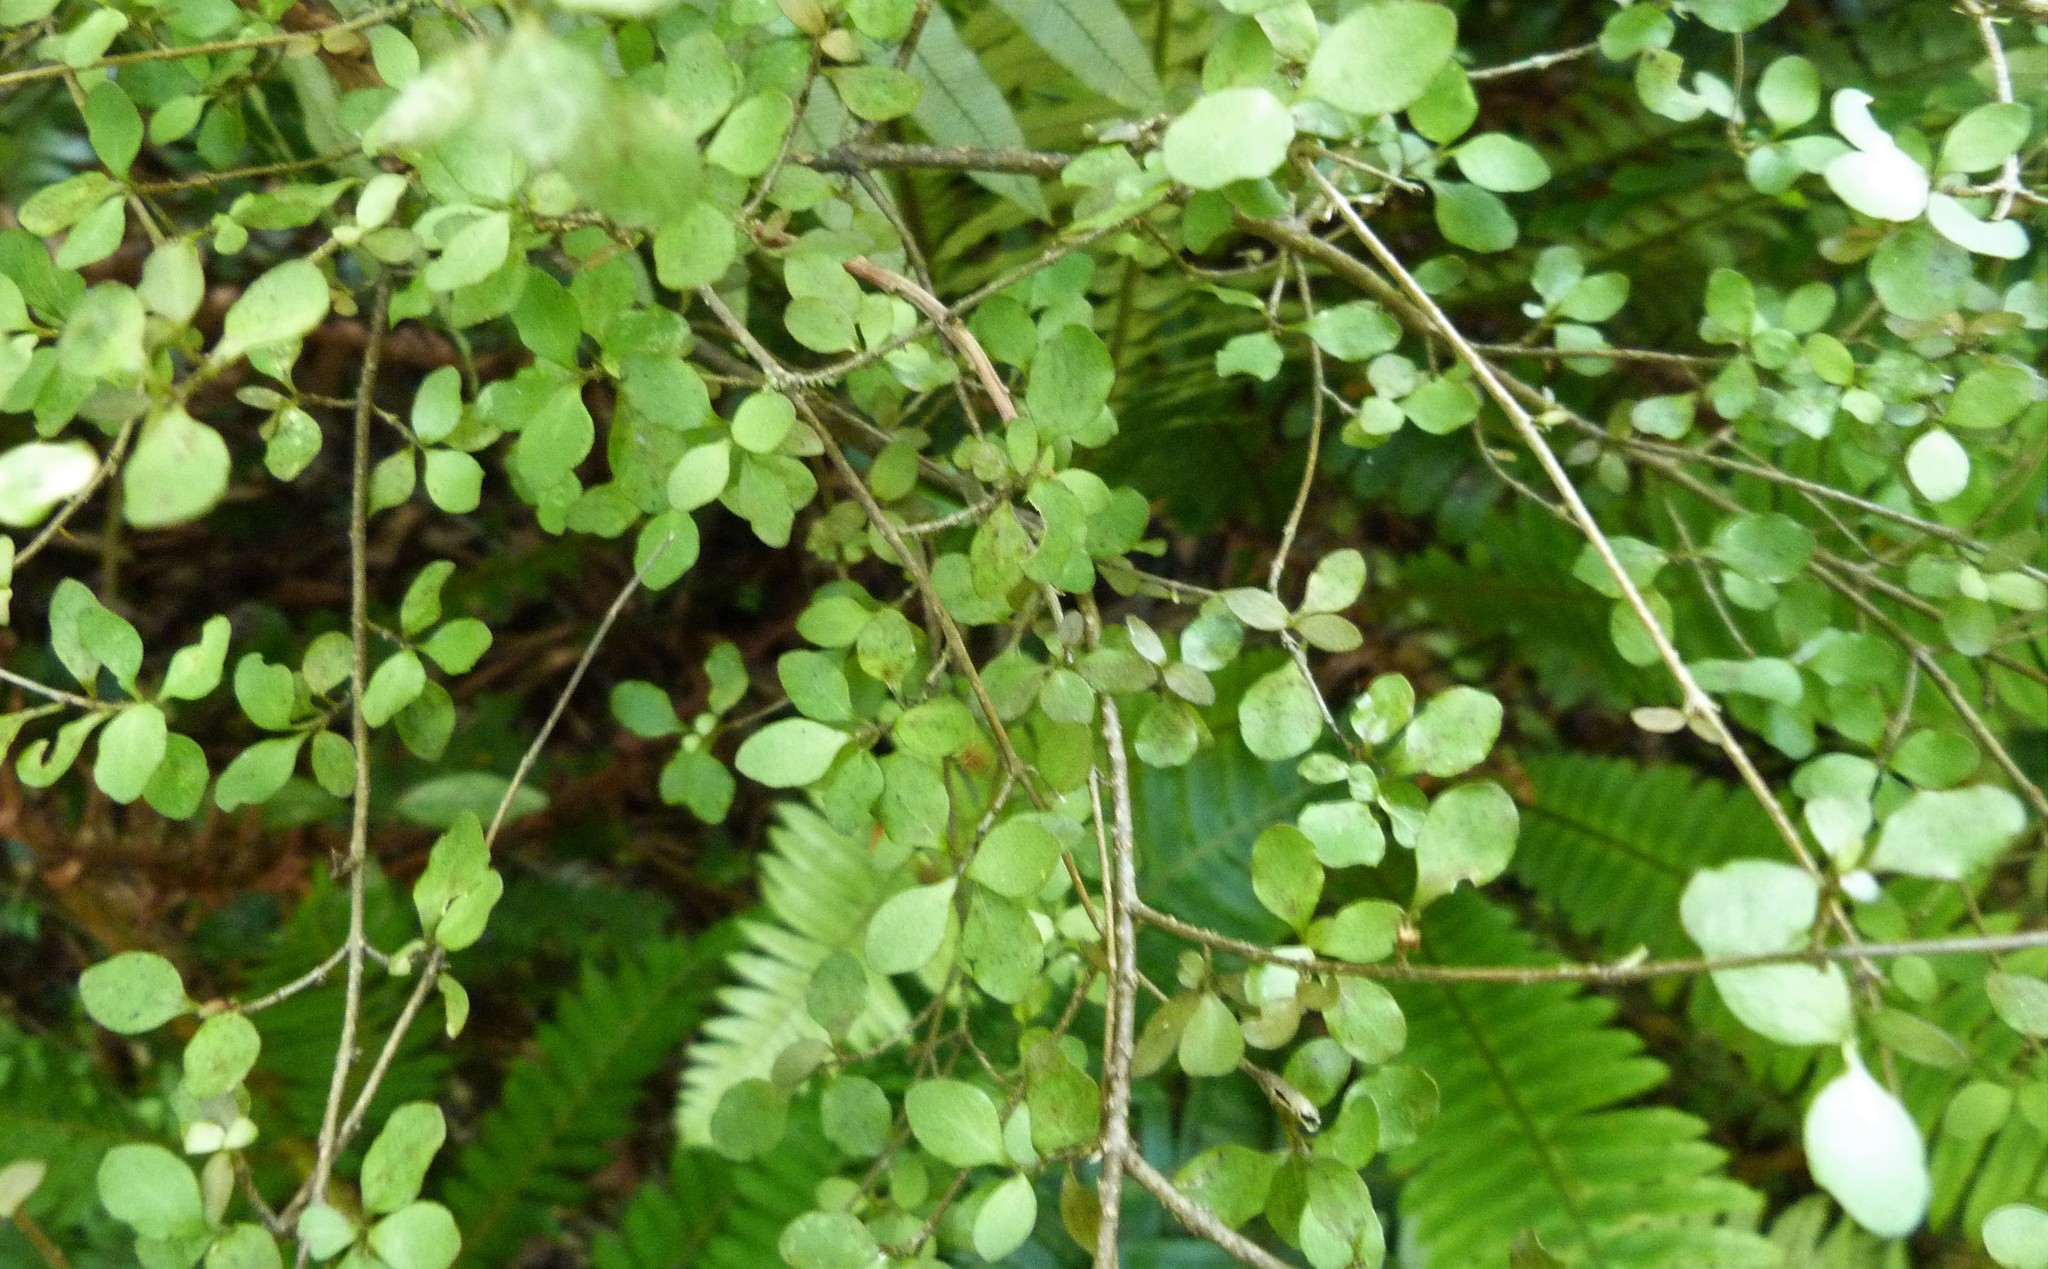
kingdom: Plantae
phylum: Tracheophyta
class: Magnoliopsida
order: Gentianales
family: Rubiaceae
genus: Coprosma
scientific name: Coprosma rhamnoides
